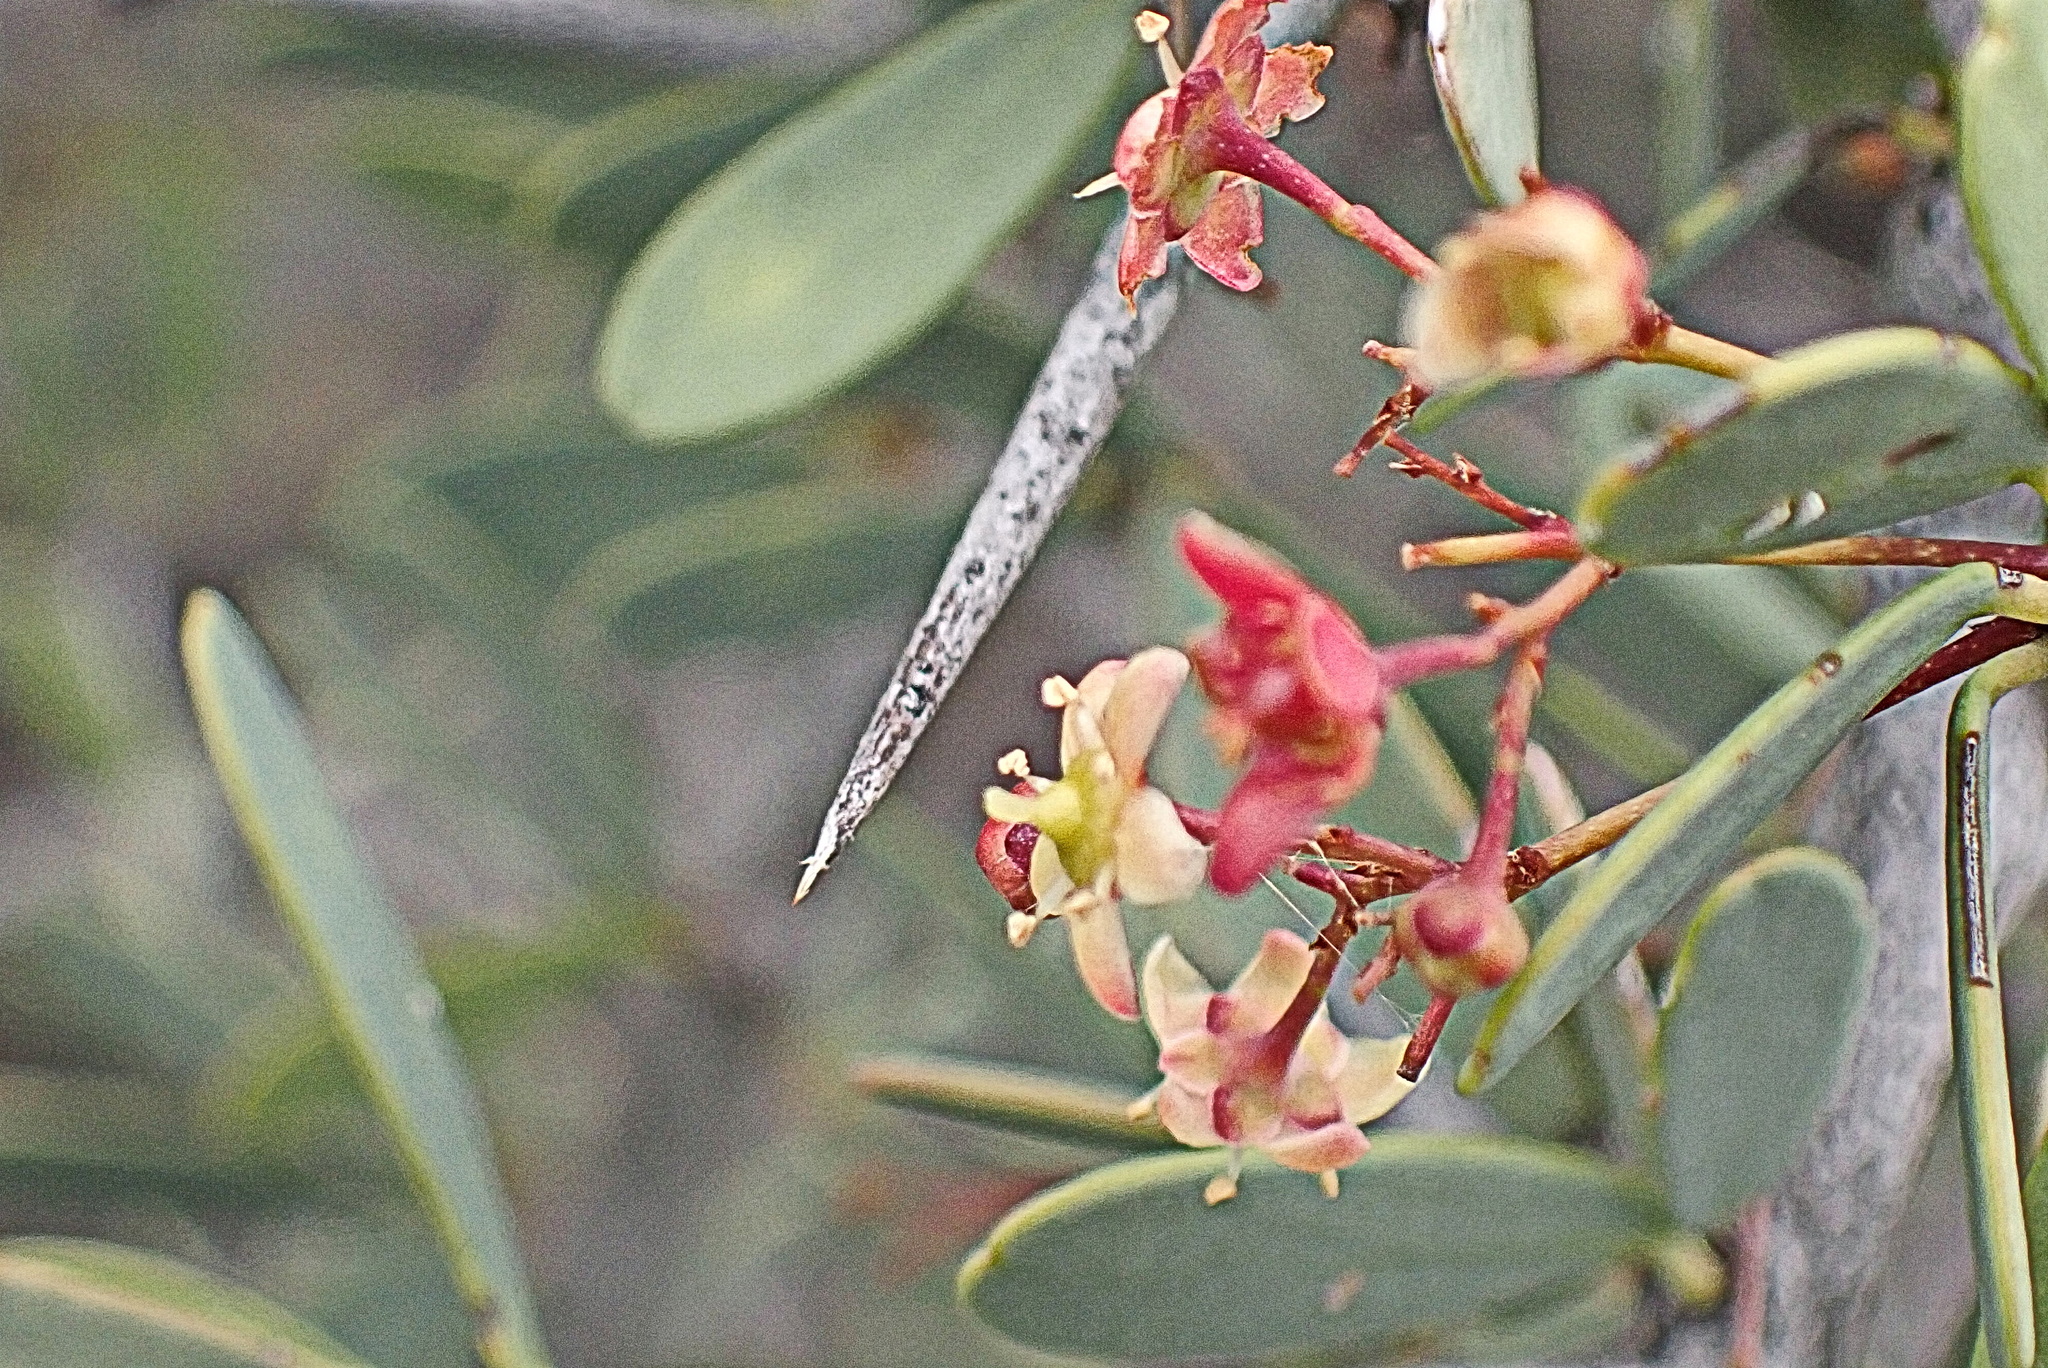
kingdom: Plantae
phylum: Tracheophyta
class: Magnoliopsida
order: Celastrales
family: Celastraceae
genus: Gloveria
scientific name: Gloveria integrifolia
